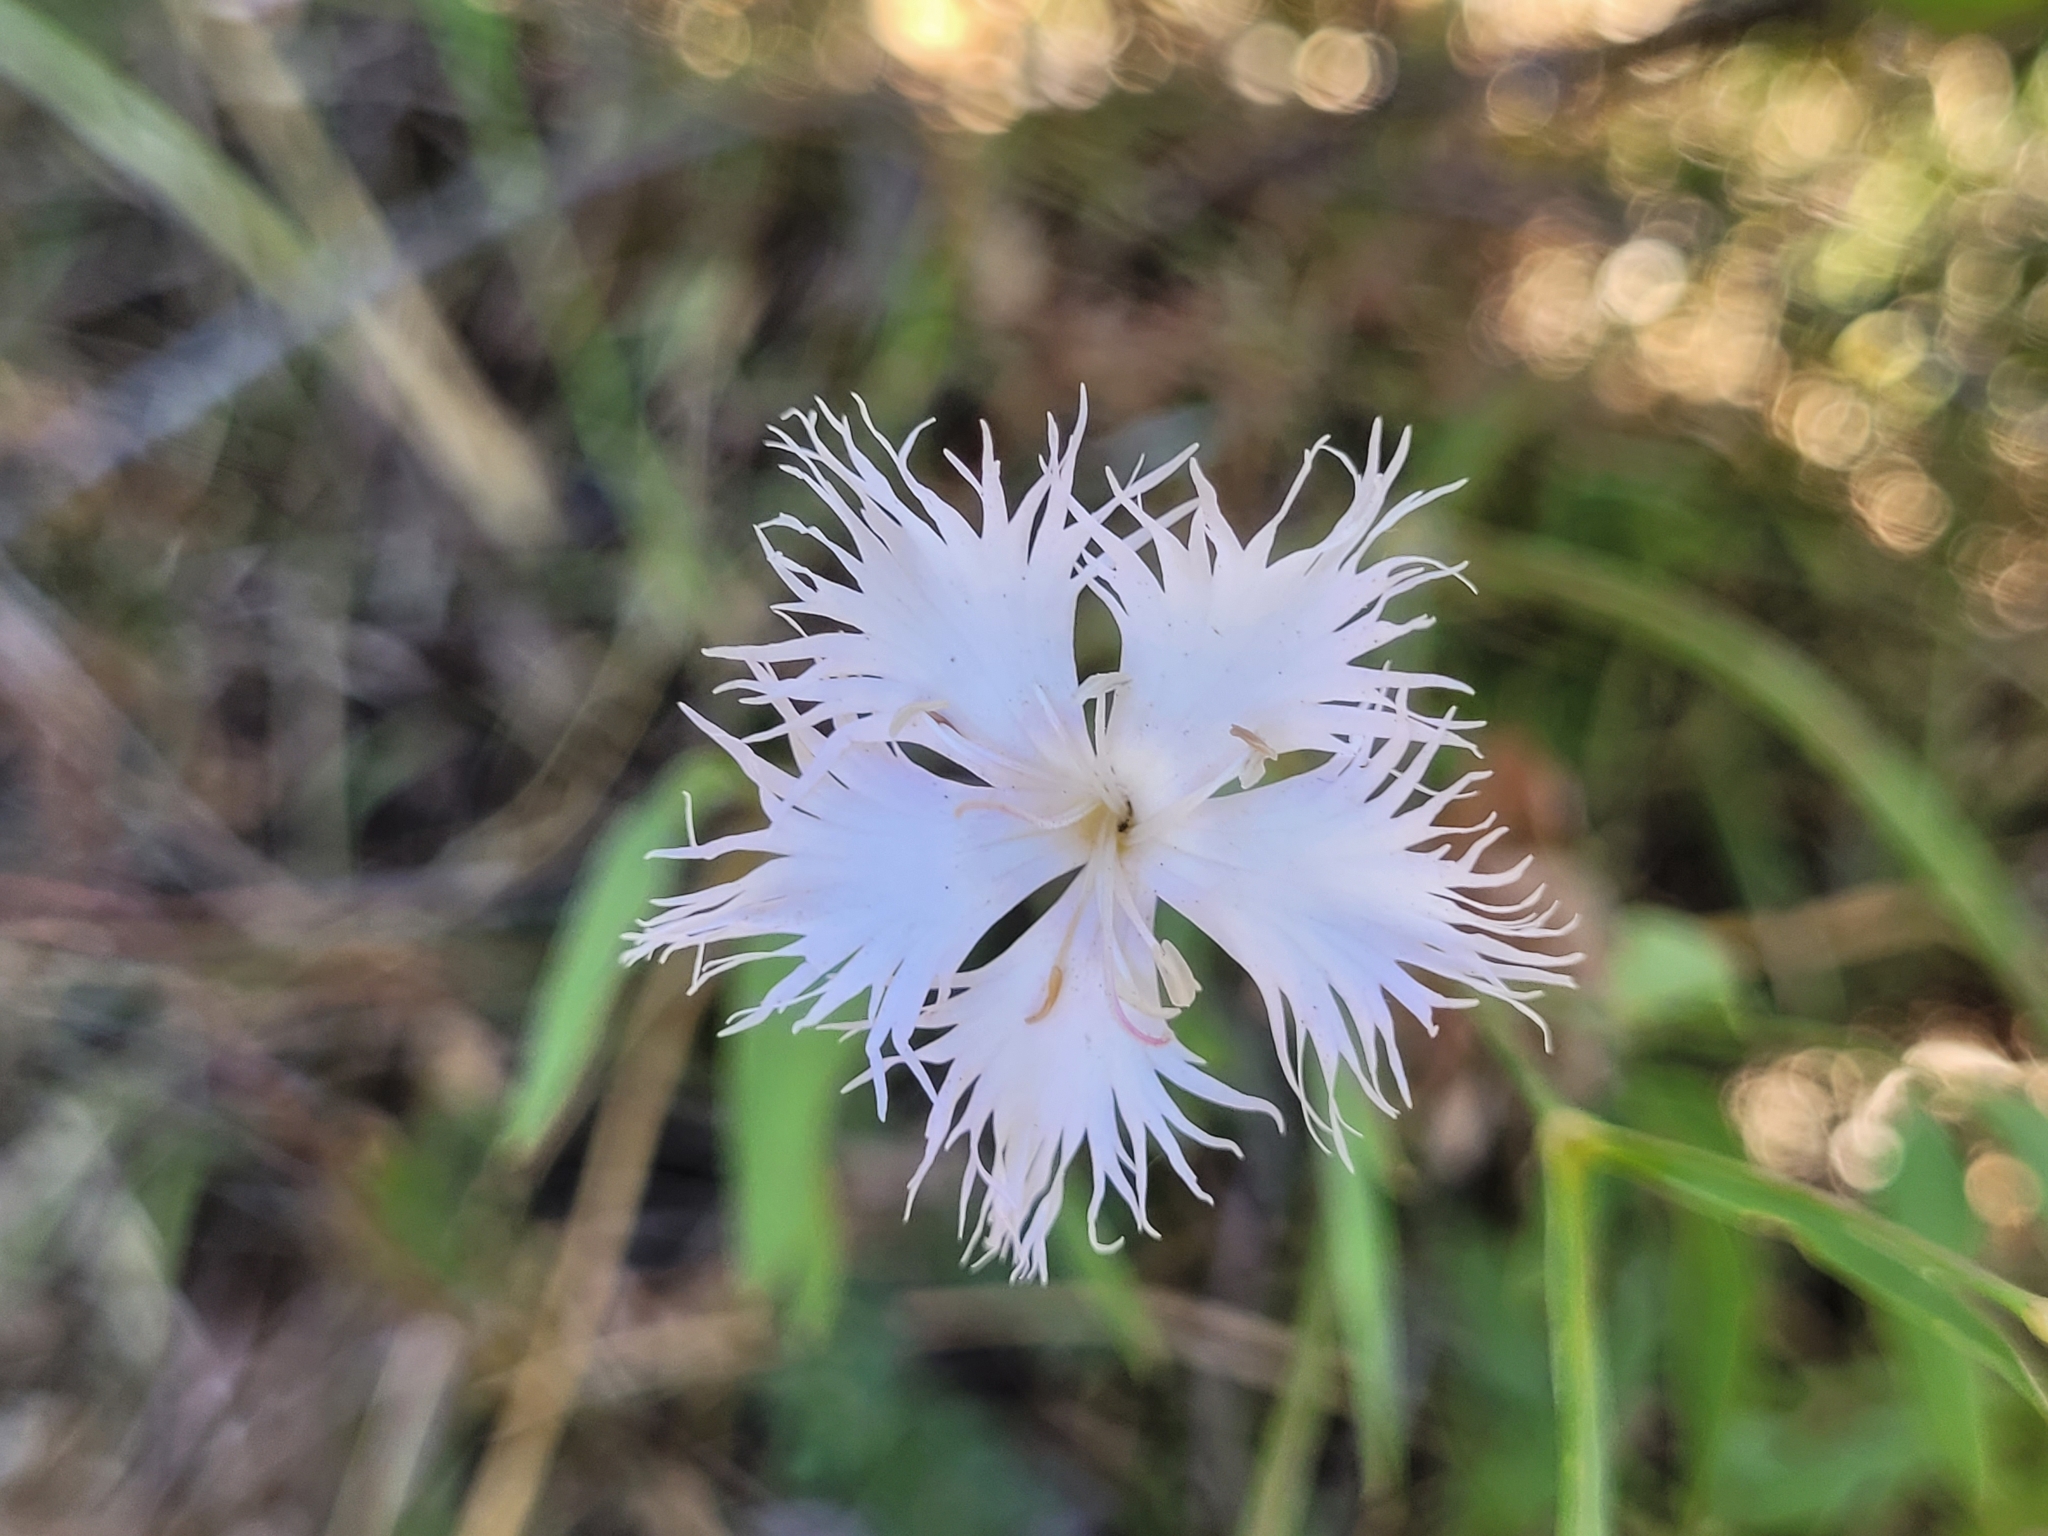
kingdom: Plantae
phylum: Tracheophyta
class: Magnoliopsida
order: Caryophyllales
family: Caryophyllaceae
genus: Dianthus
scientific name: Dianthus hyssopifolius
